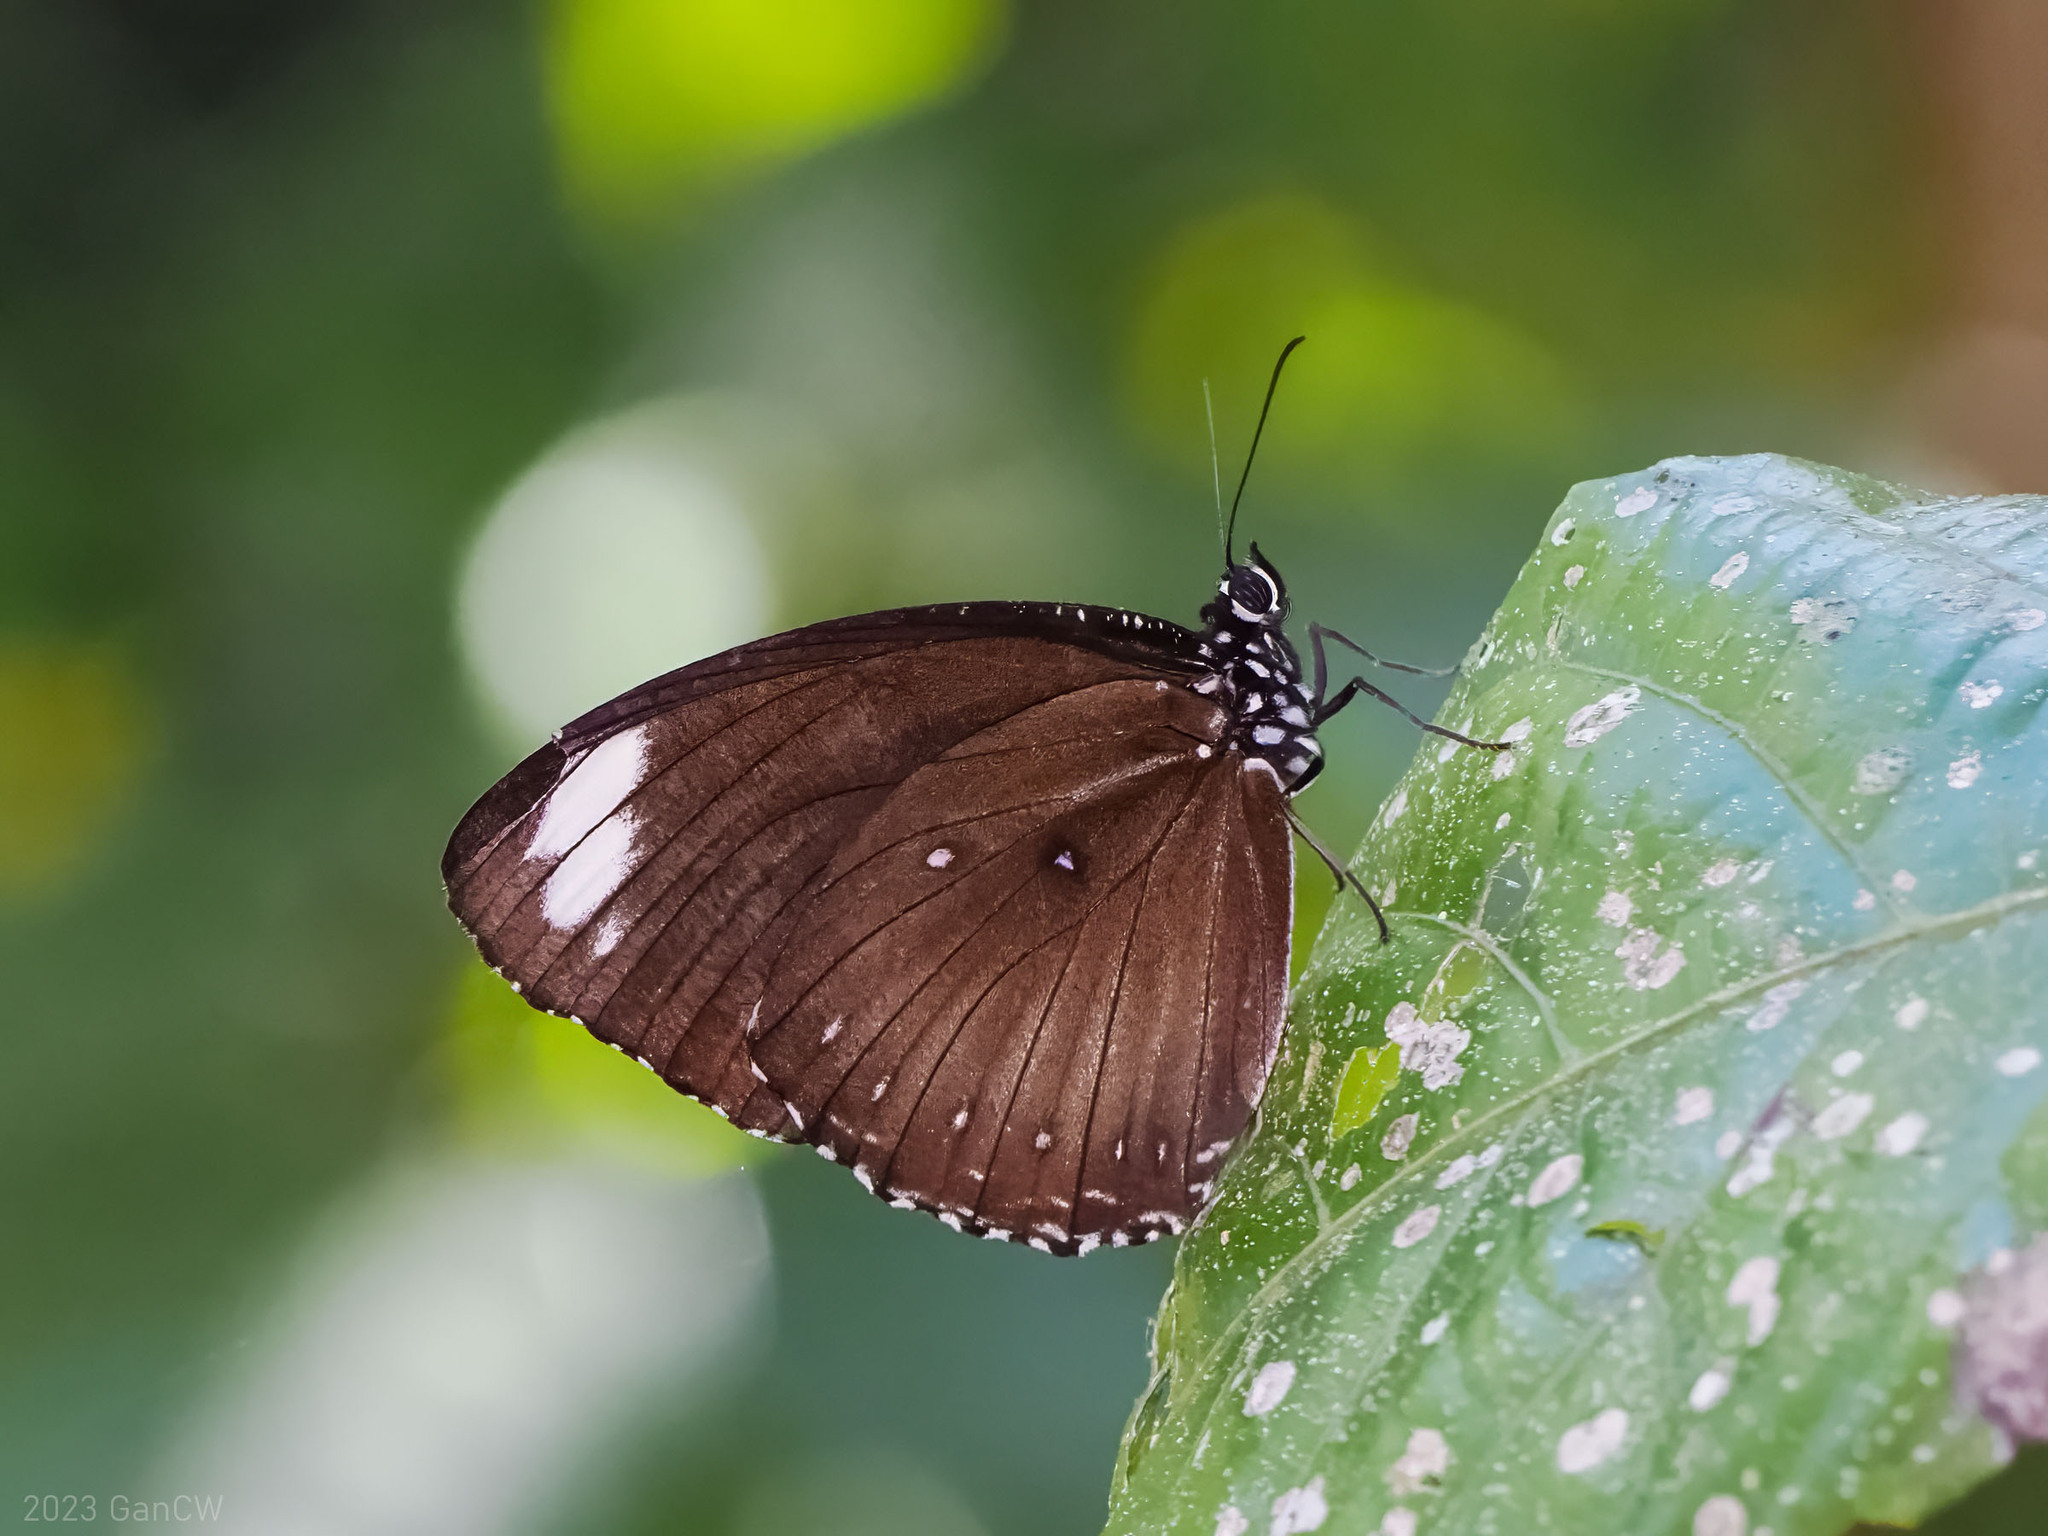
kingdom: Animalia
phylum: Arthropoda
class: Insecta
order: Lepidoptera
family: Nymphalidae
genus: Elymnias
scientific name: Elymnias melias
